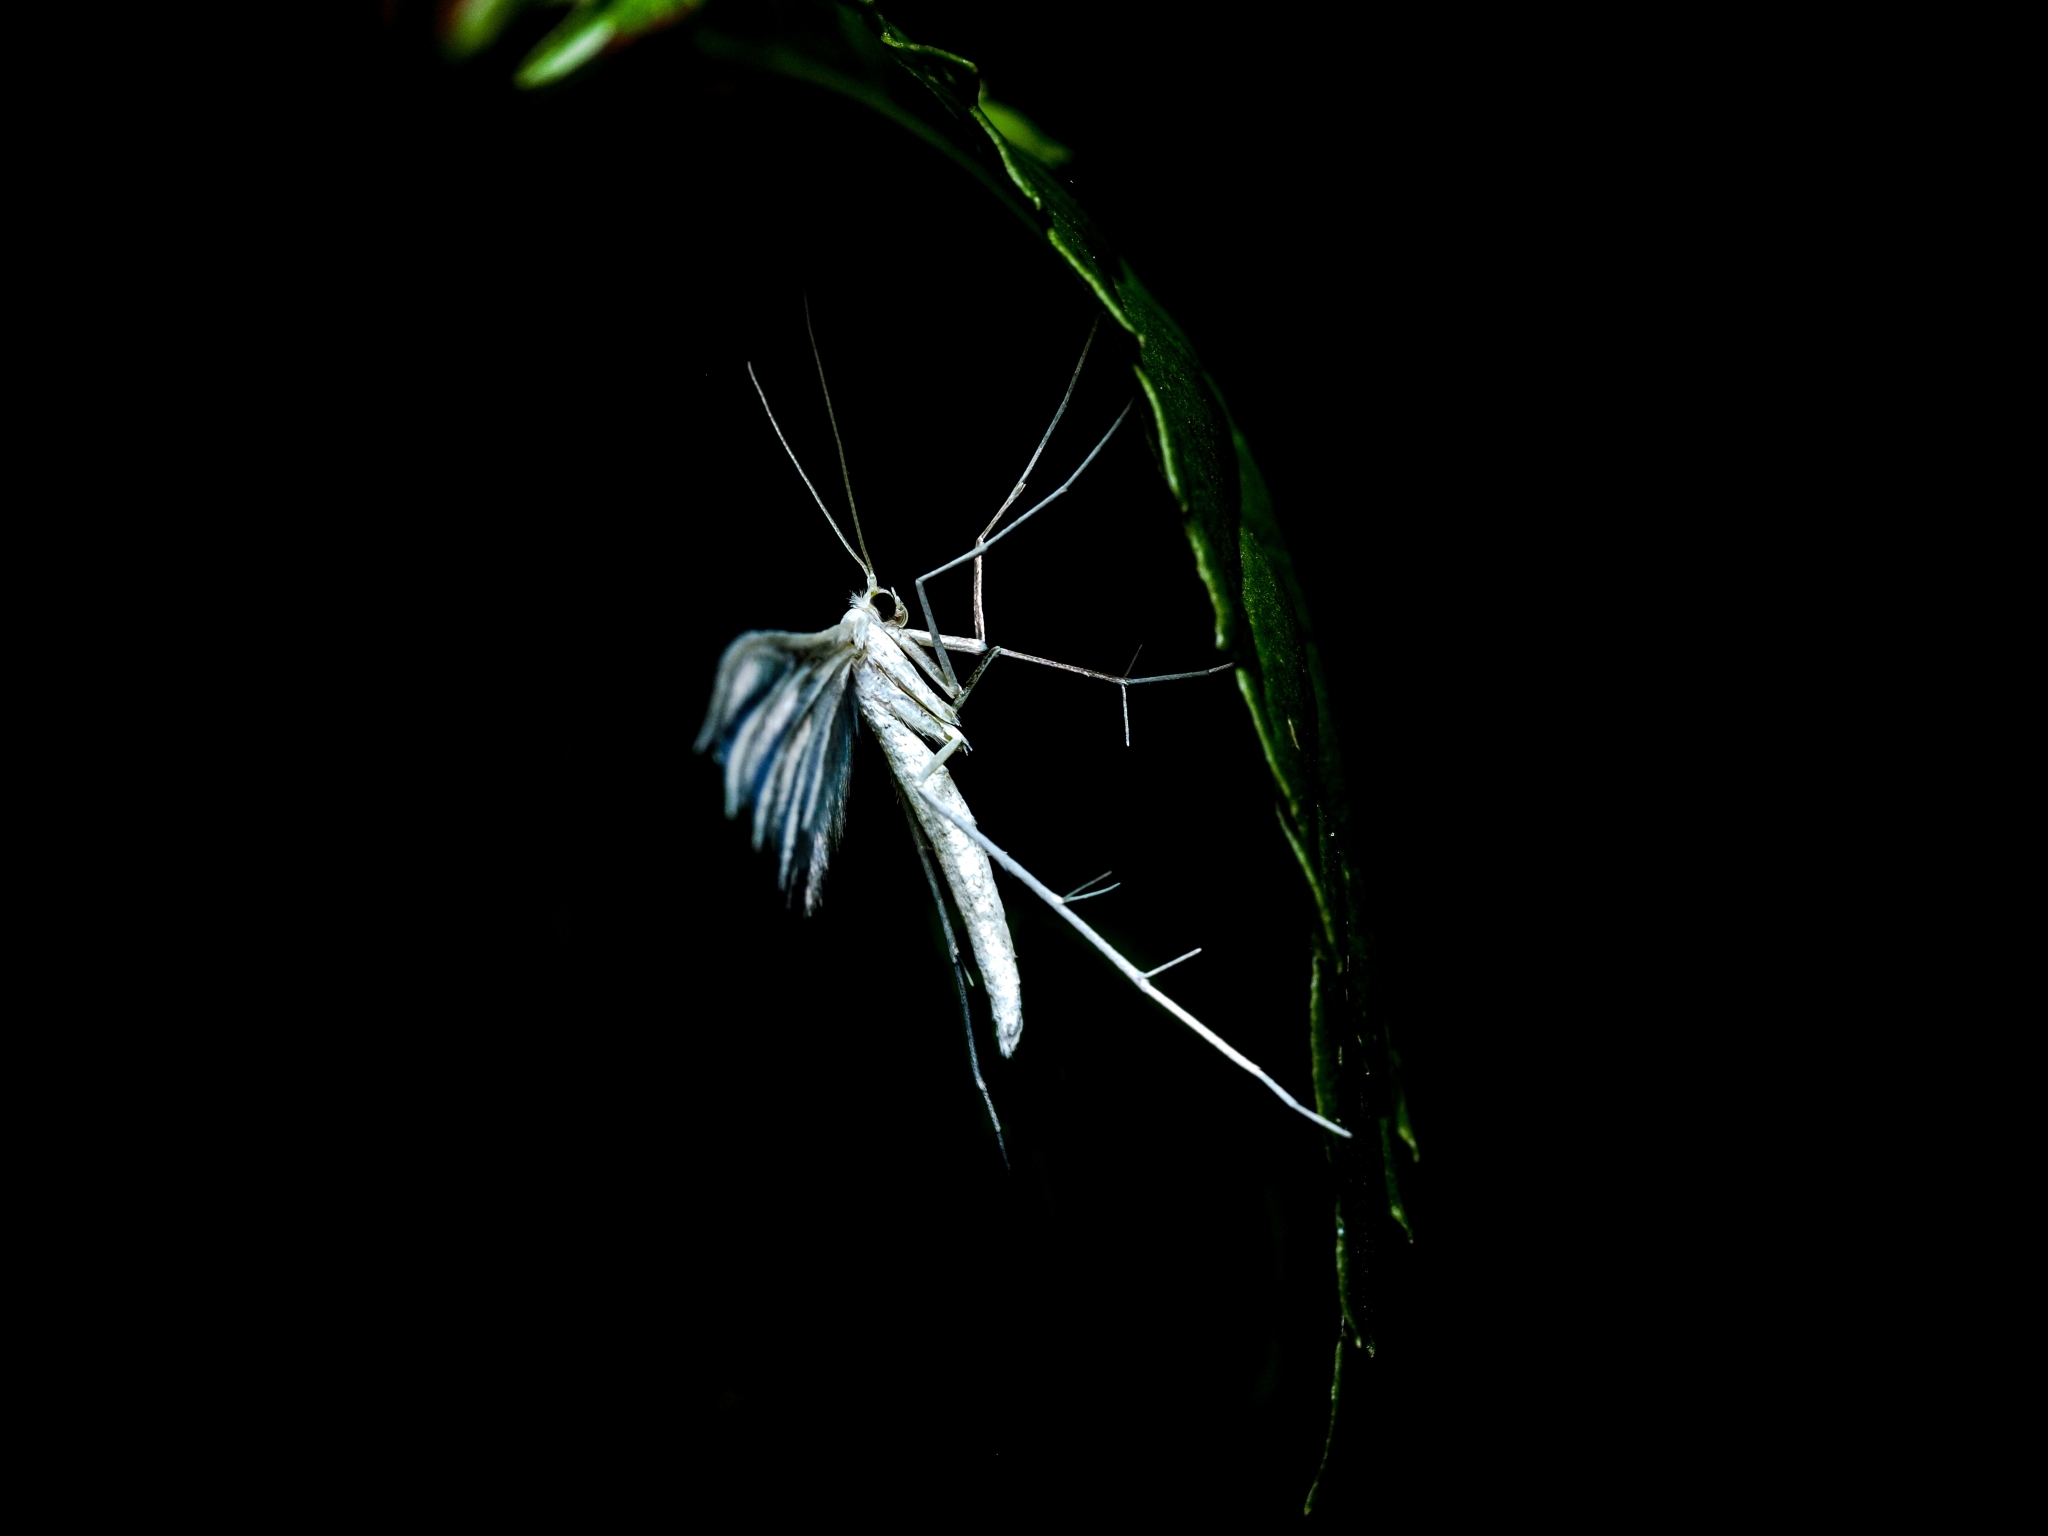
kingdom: Animalia
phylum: Arthropoda
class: Insecta
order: Lepidoptera
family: Pterophoridae
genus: Pterophorus
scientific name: Pterophorus pentadactyla
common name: White plume moth
